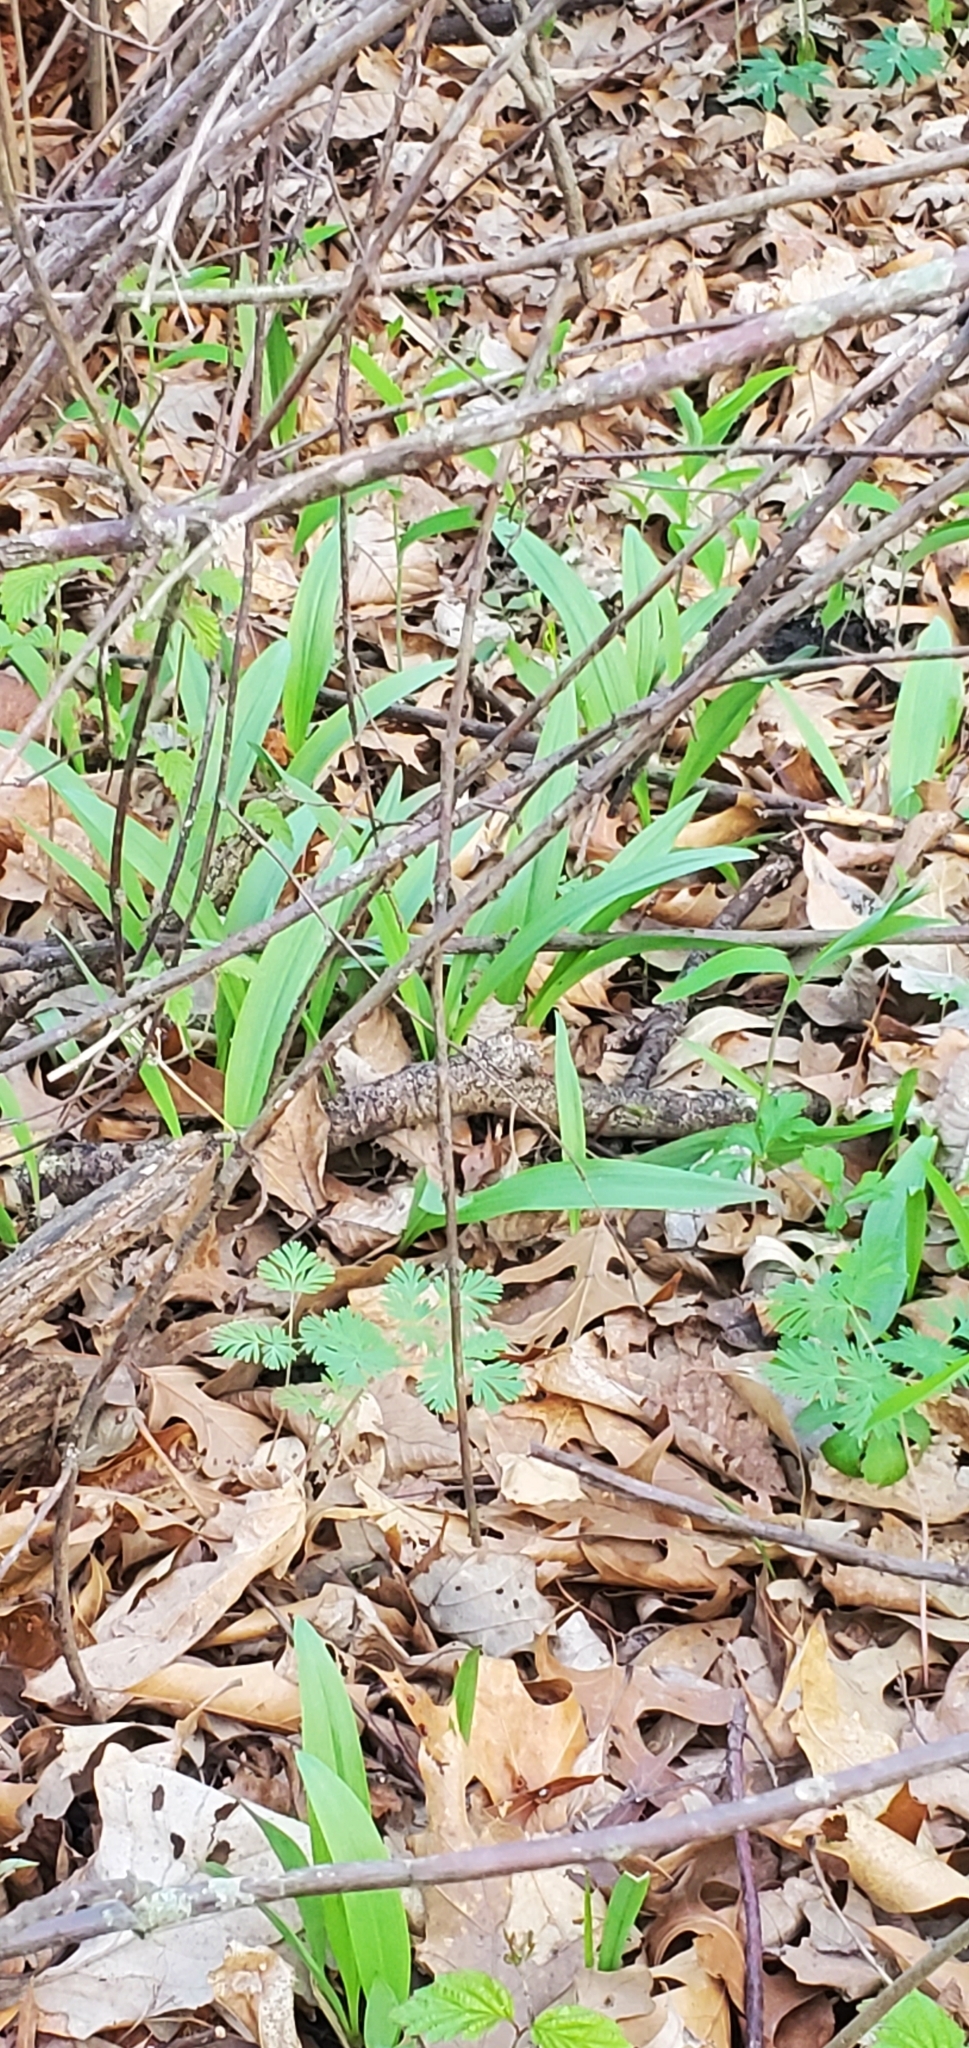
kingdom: Plantae
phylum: Tracheophyta
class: Liliopsida
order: Asparagales
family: Amaryllidaceae
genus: Allium
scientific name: Allium tricoccum
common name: Ramp
